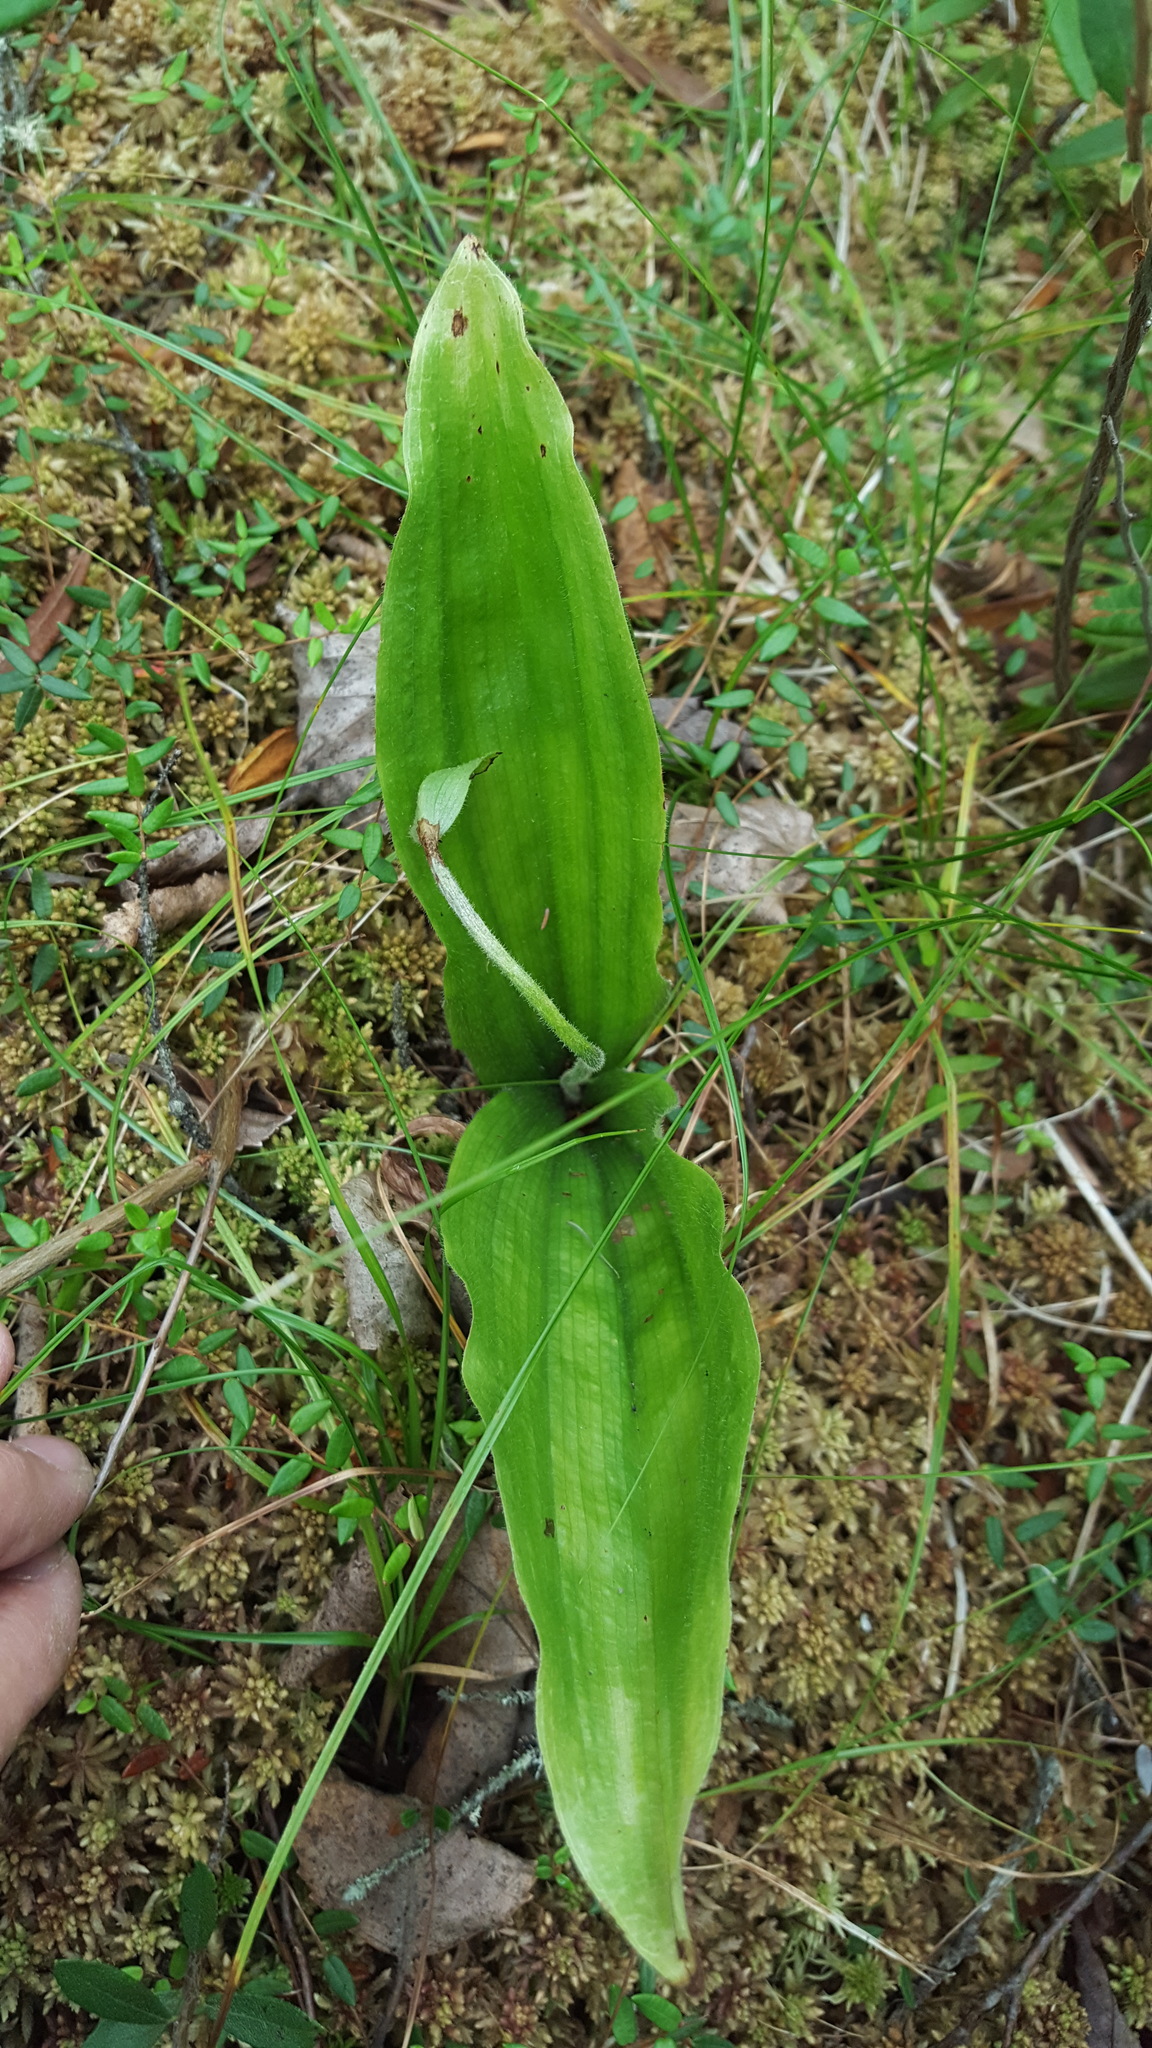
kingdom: Plantae
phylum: Tracheophyta
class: Liliopsida
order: Asparagales
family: Orchidaceae
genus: Cypripedium
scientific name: Cypripedium acaule
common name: Pink lady's-slipper
